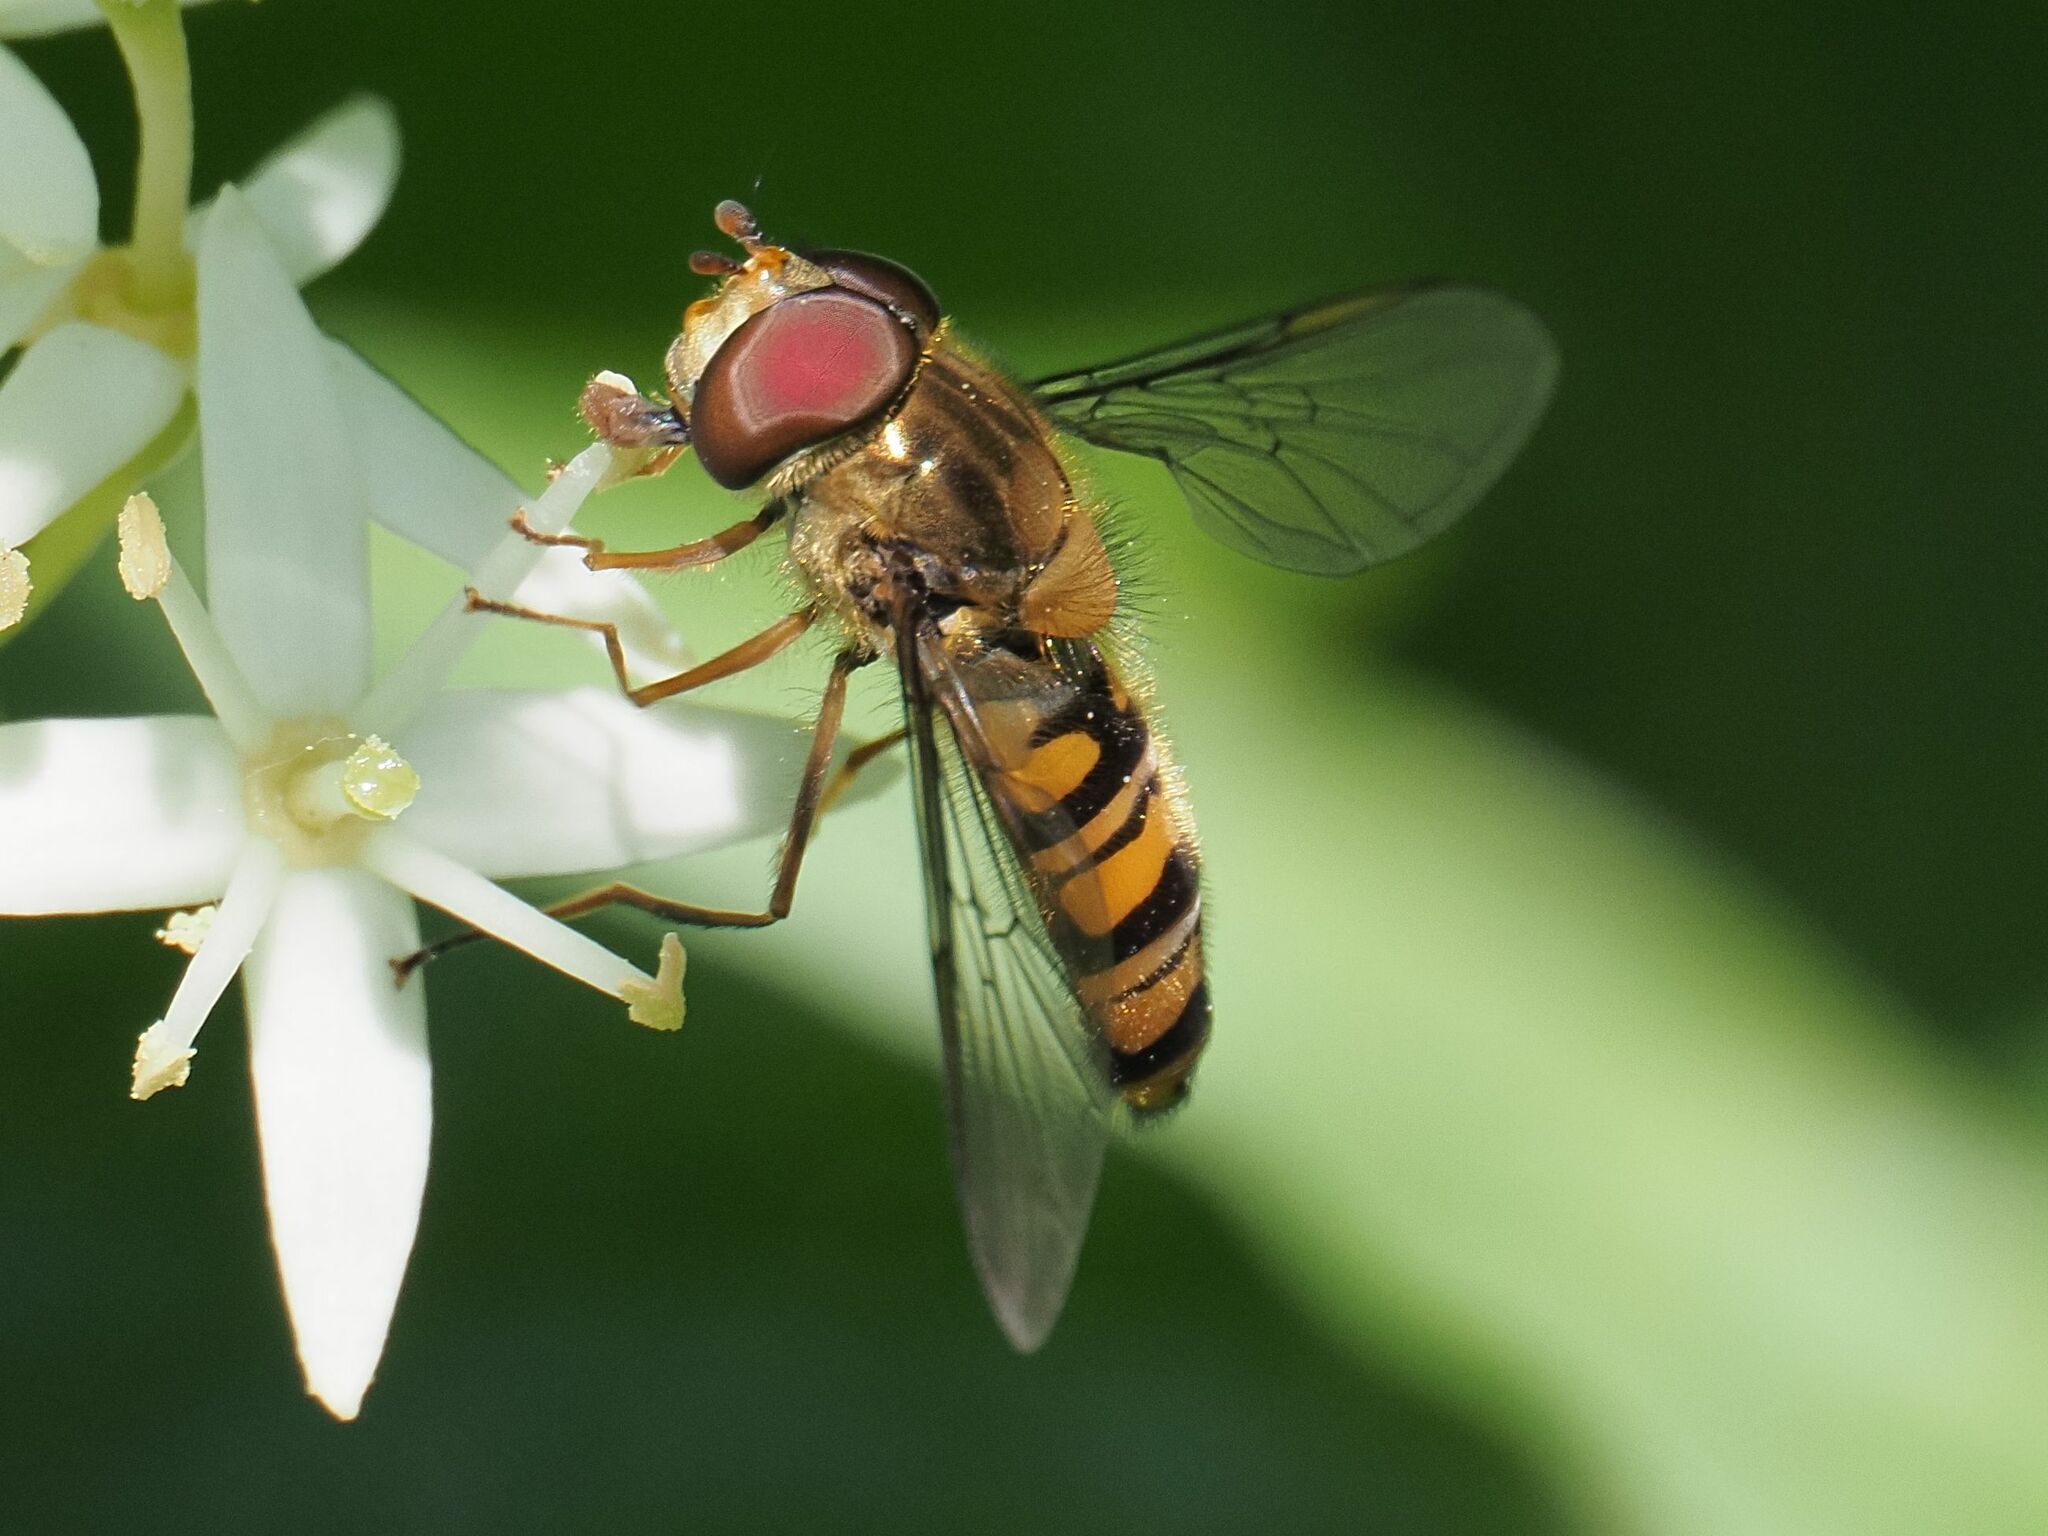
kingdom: Animalia
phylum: Arthropoda
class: Insecta
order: Diptera
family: Syrphidae
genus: Episyrphus
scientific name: Episyrphus balteatus
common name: Marmalade hoverfly
